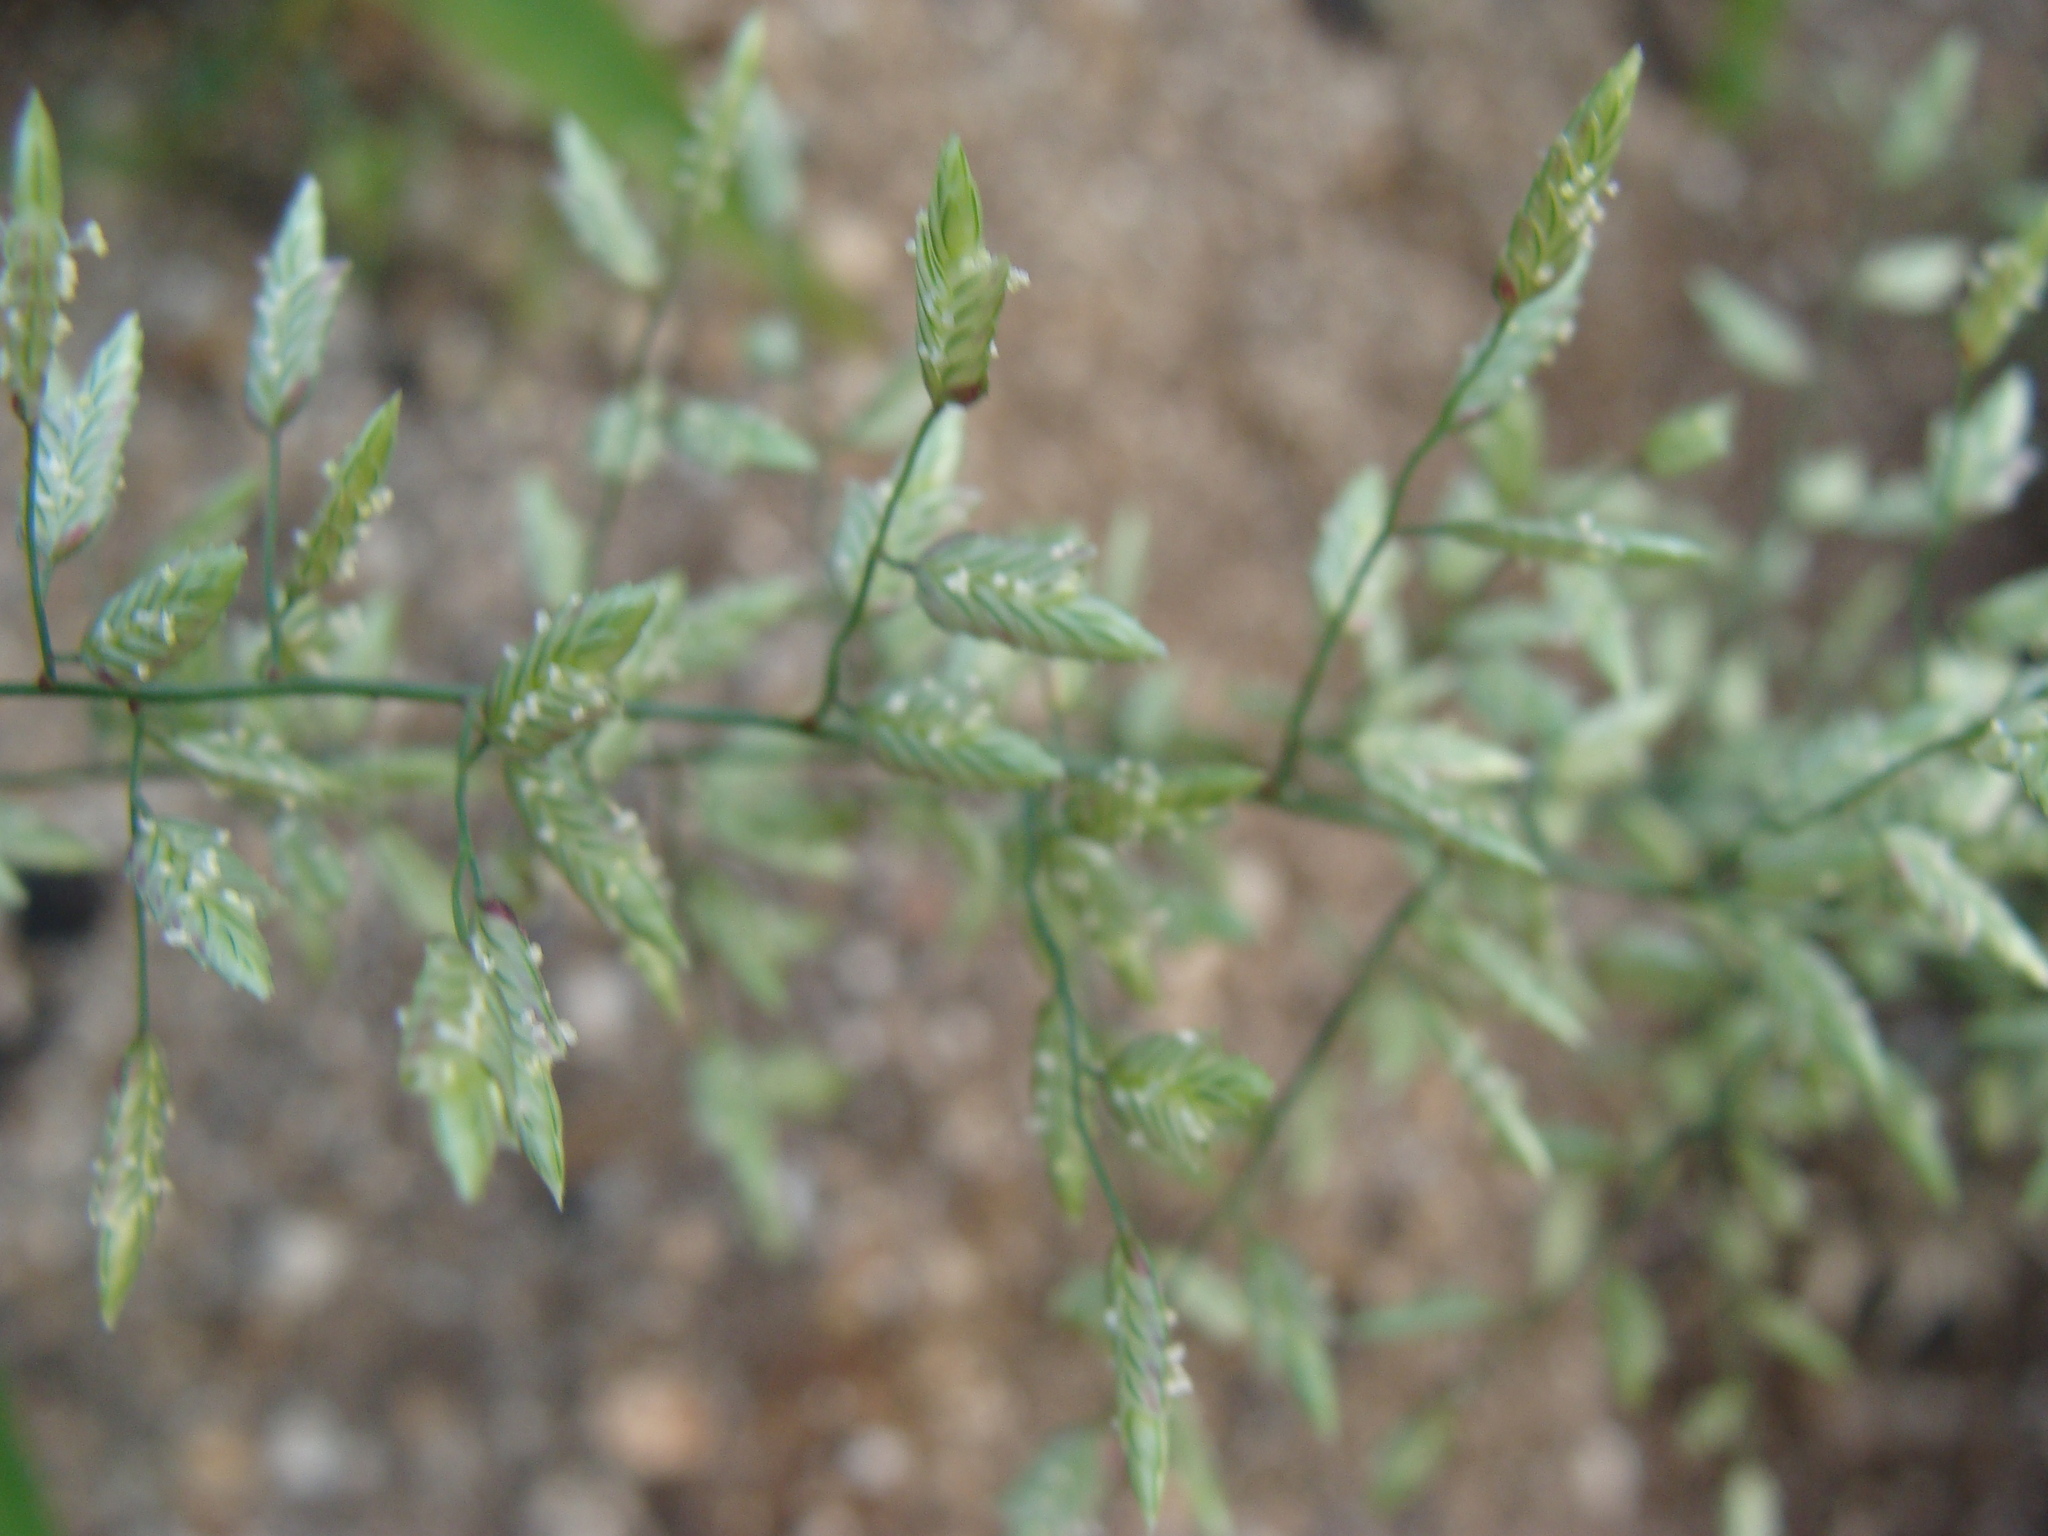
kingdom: Plantae
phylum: Tracheophyta
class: Liliopsida
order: Poales
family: Poaceae
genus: Eragrostis
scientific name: Eragrostis cilianensis
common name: Stinkgrass
